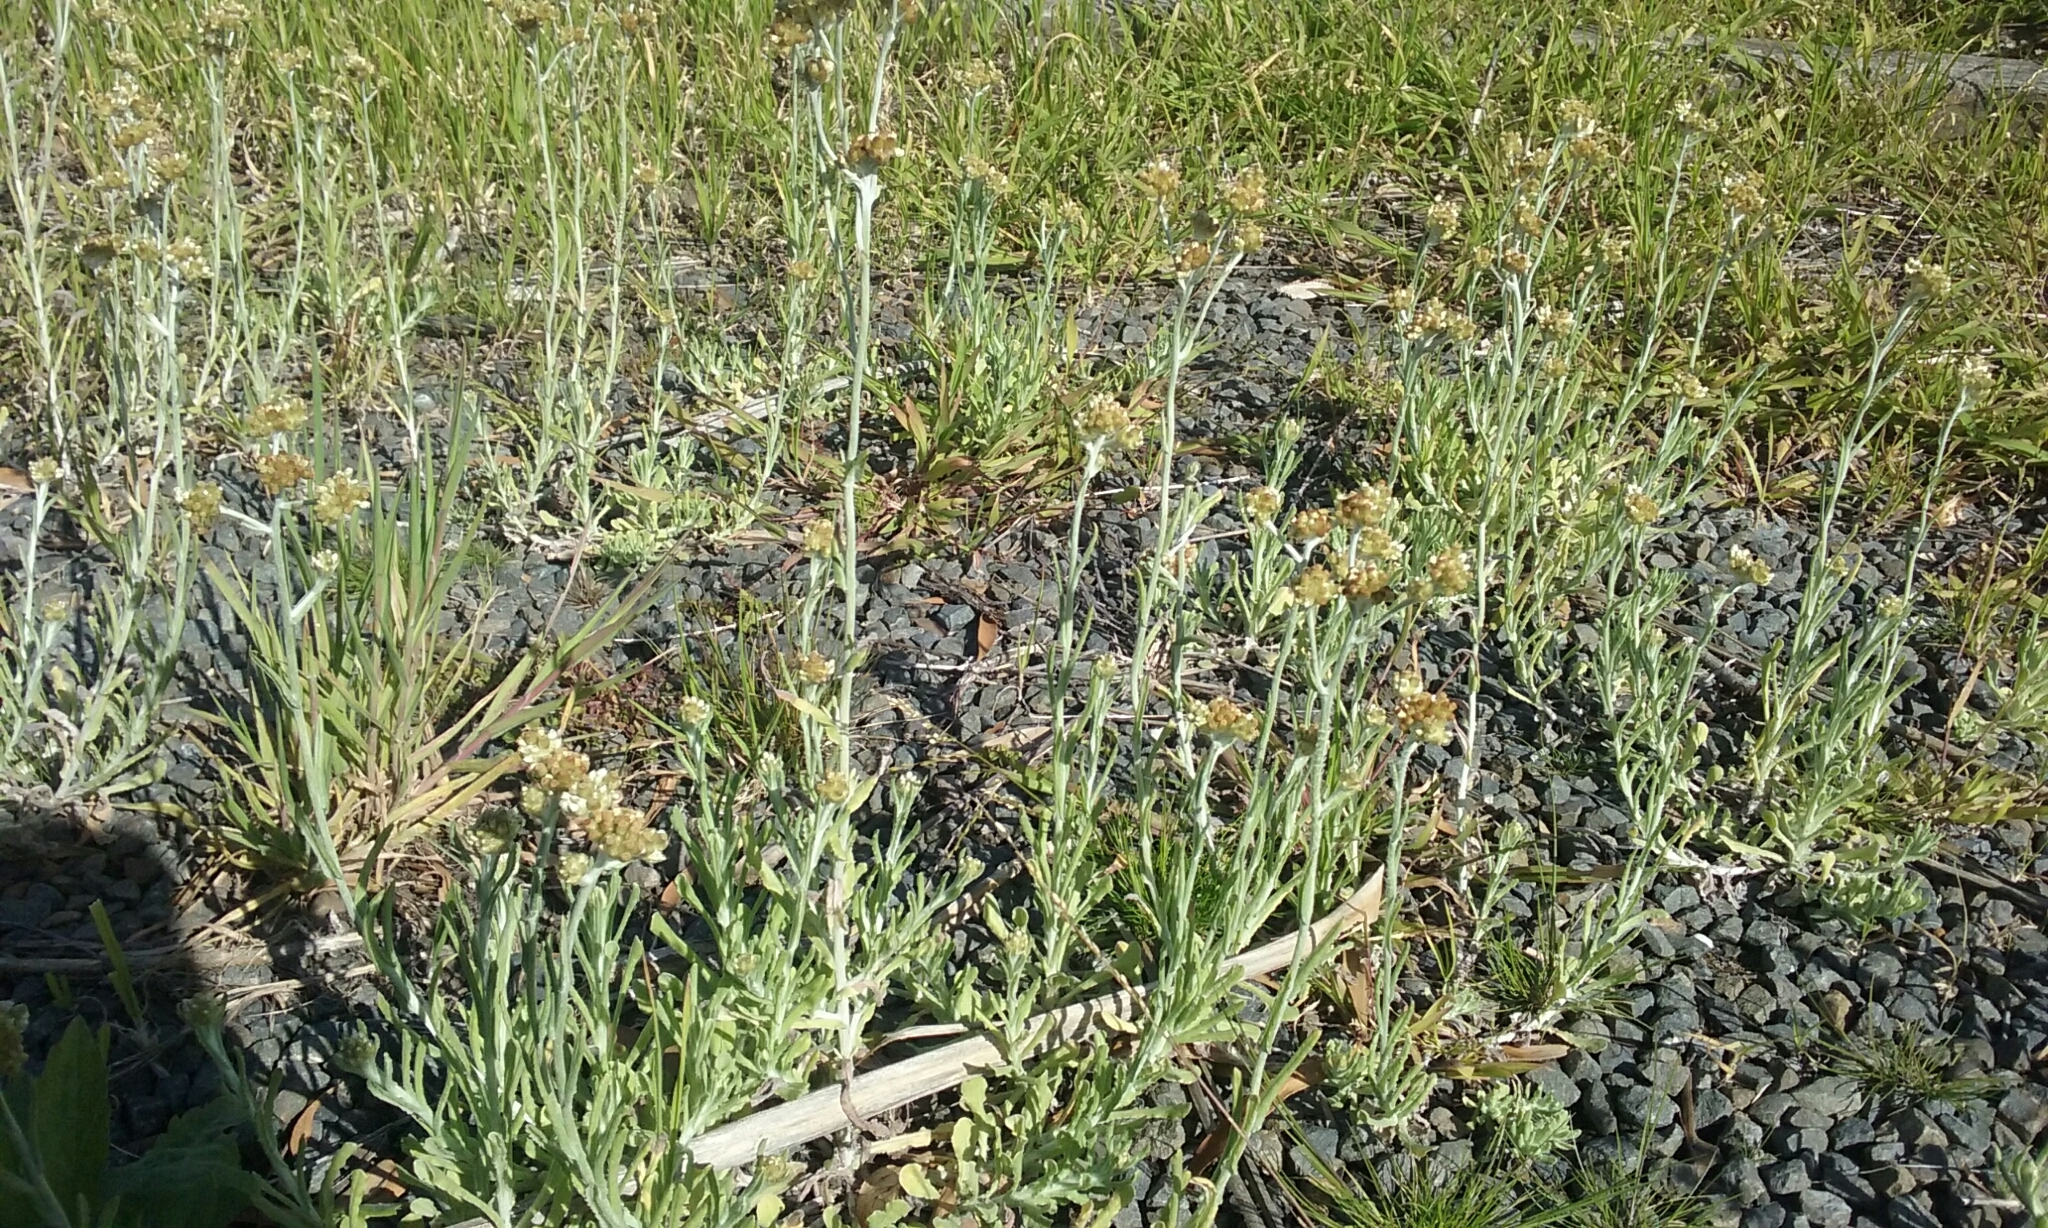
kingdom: Plantae
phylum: Tracheophyta
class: Magnoliopsida
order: Asterales
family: Asteraceae
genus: Helichrysum
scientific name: Helichrysum luteoalbum
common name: Daisy
